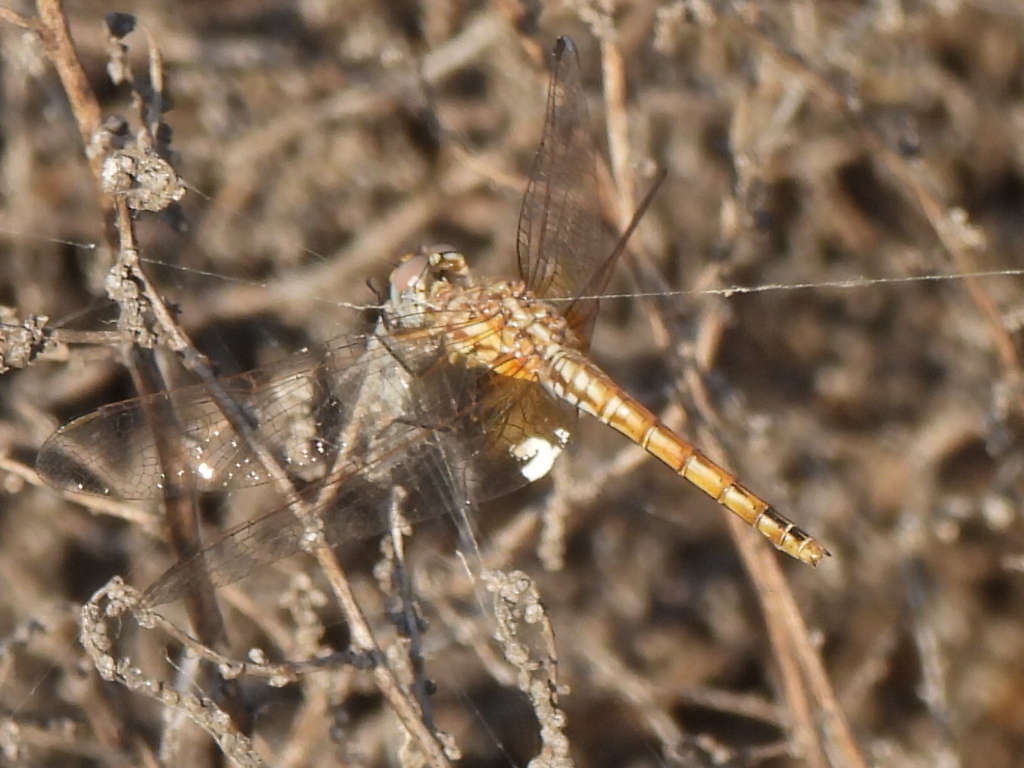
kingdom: Animalia
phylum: Arthropoda
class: Insecta
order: Odonata
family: Libellulidae
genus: Trithemis
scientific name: Trithemis annulata
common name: Violet dropwing
